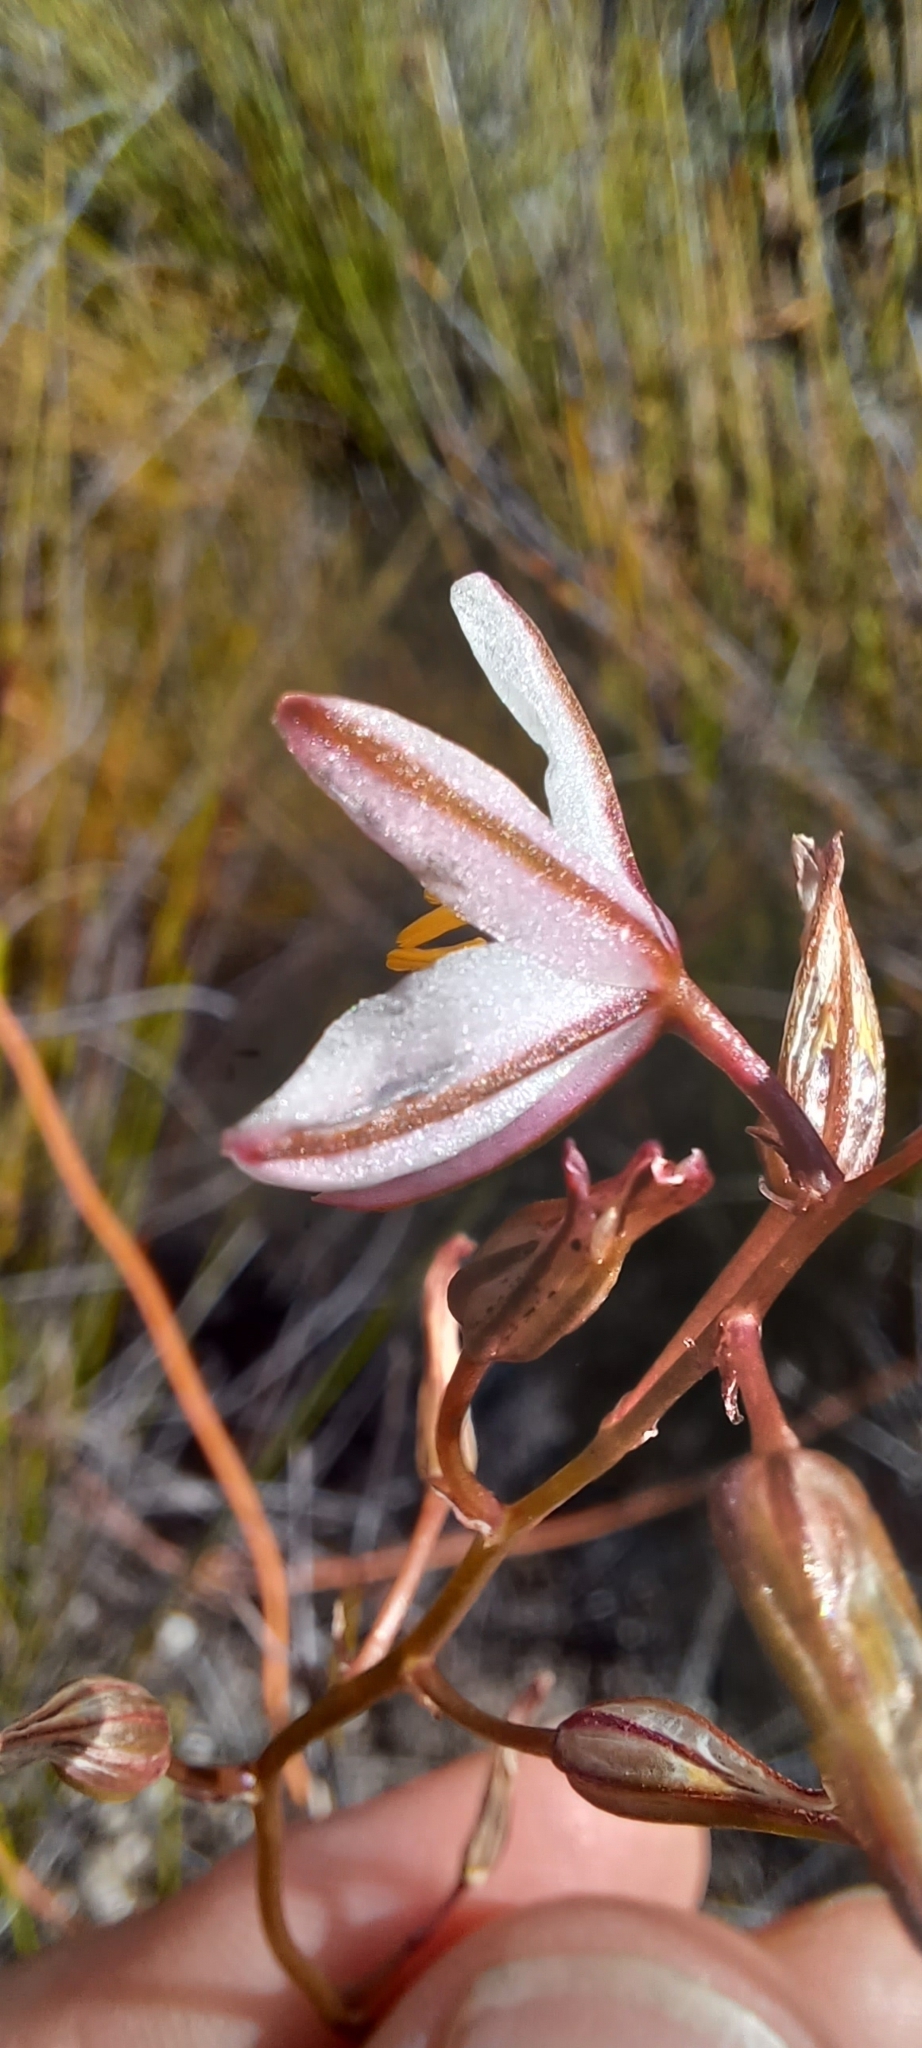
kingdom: Plantae
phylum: Tracheophyta
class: Liliopsida
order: Asparagales
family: Asparagaceae
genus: Drimia
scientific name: Drimia exuviata
